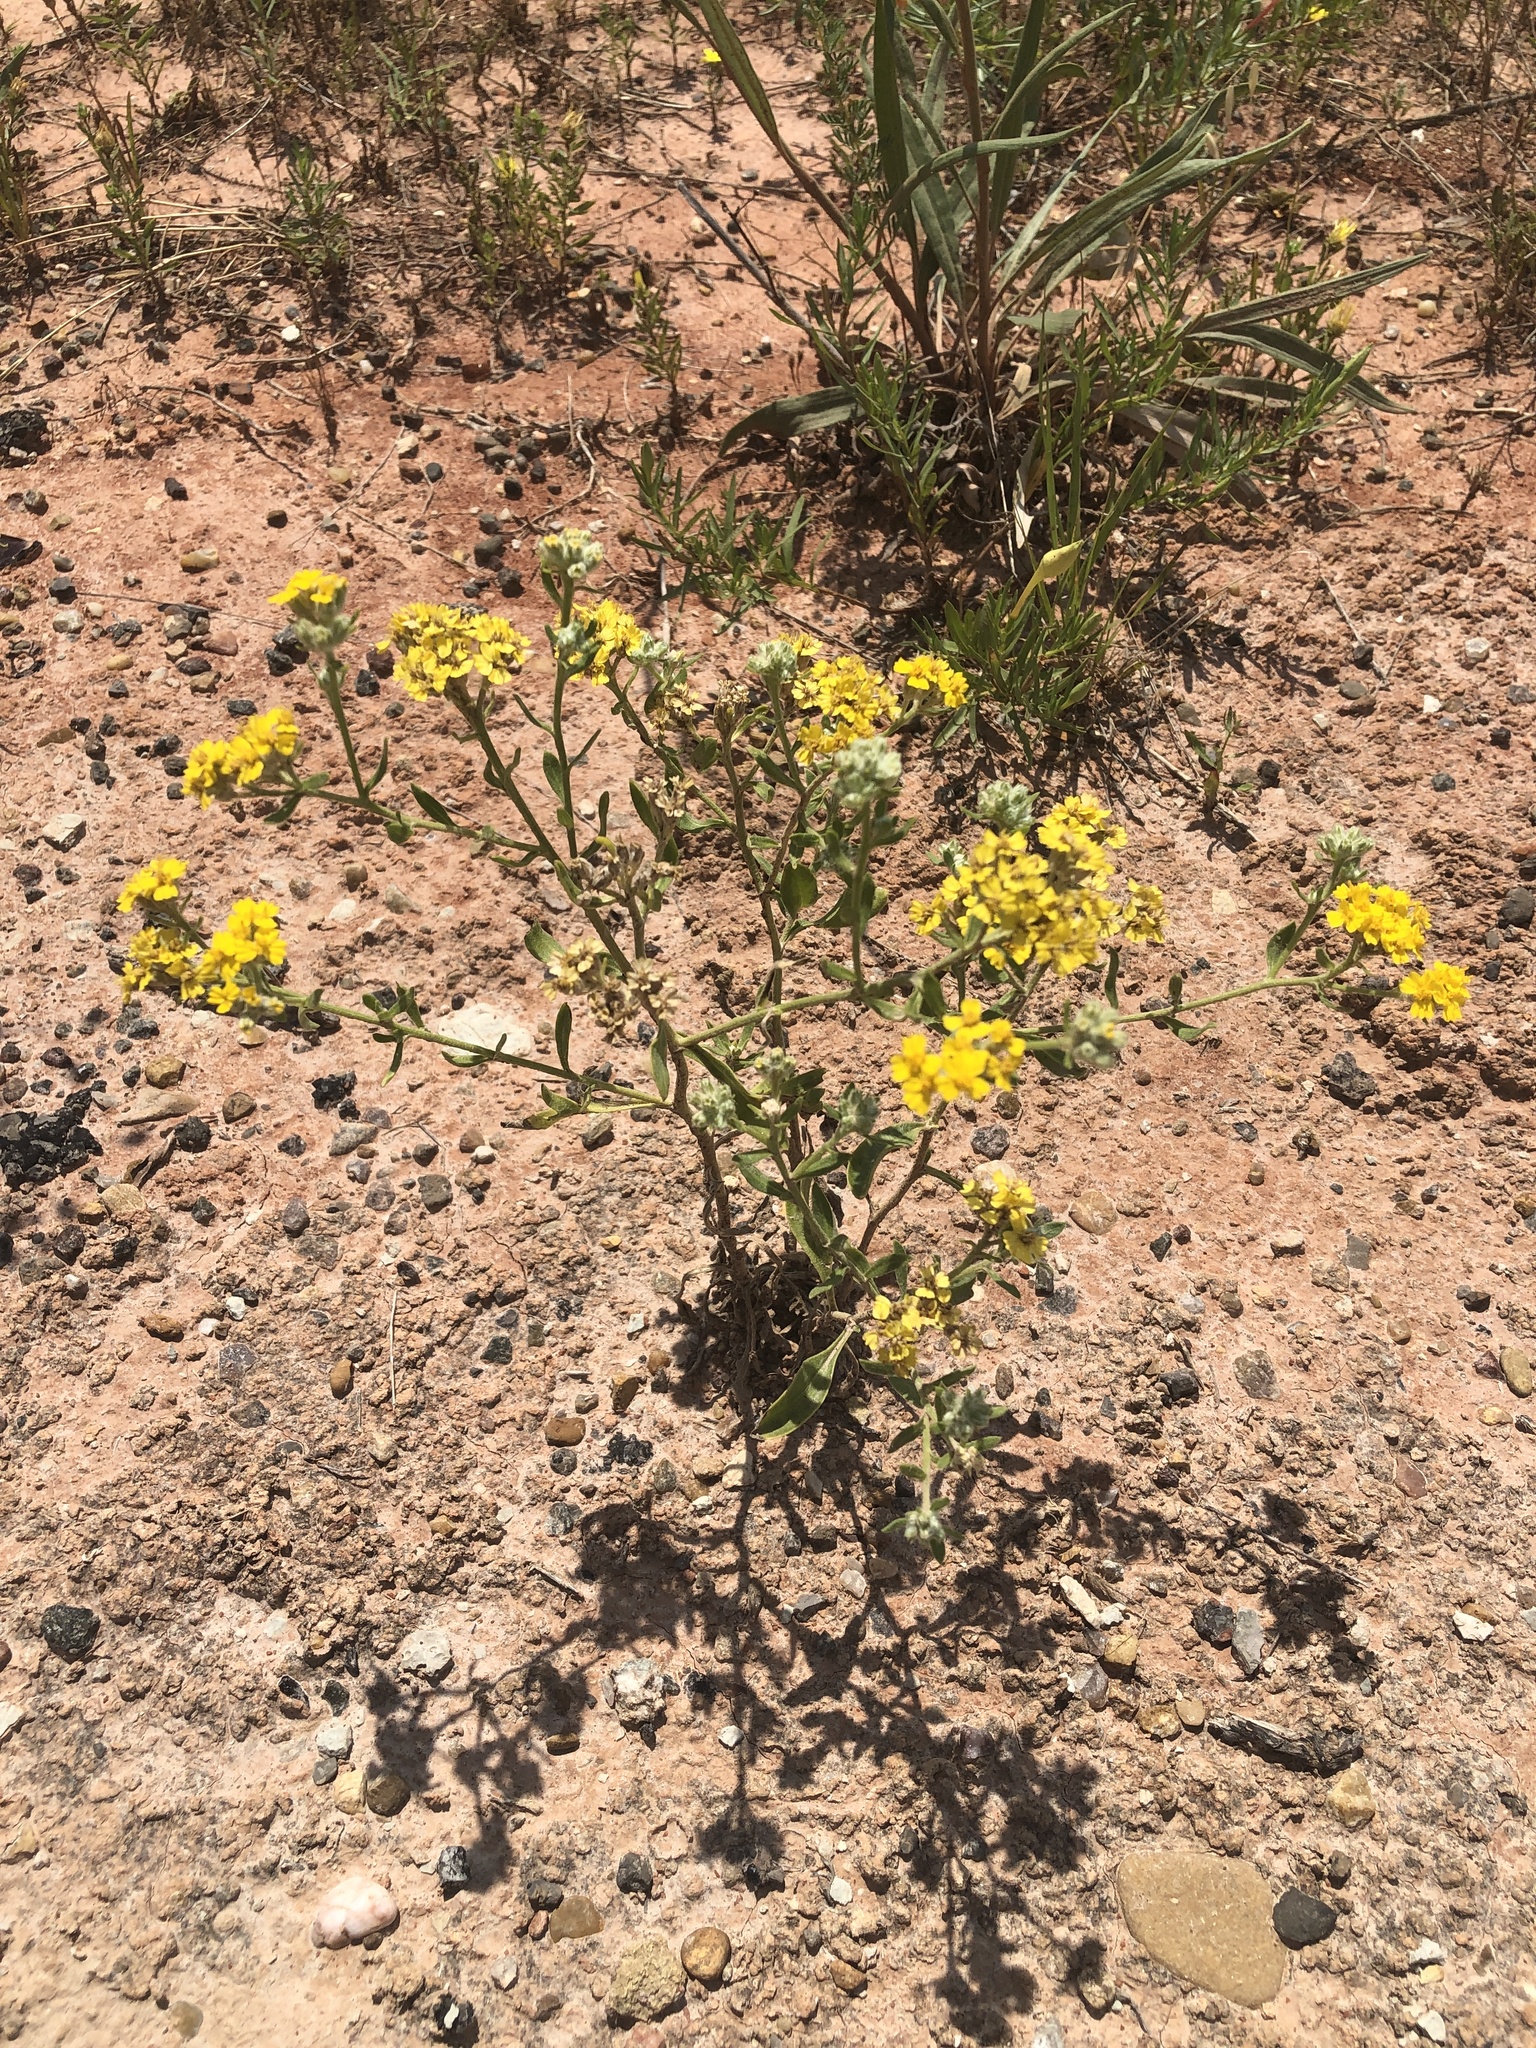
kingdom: Plantae
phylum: Tracheophyta
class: Magnoliopsida
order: Asterales
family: Asteraceae
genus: Psilostrophe
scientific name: Psilostrophe tagetina
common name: Marigold paper-flower
